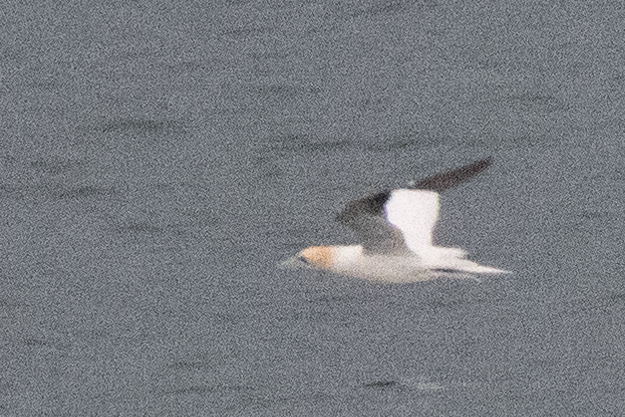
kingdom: Animalia
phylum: Chordata
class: Aves
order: Suliformes
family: Sulidae
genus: Morus
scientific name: Morus bassanus
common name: Northern gannet
